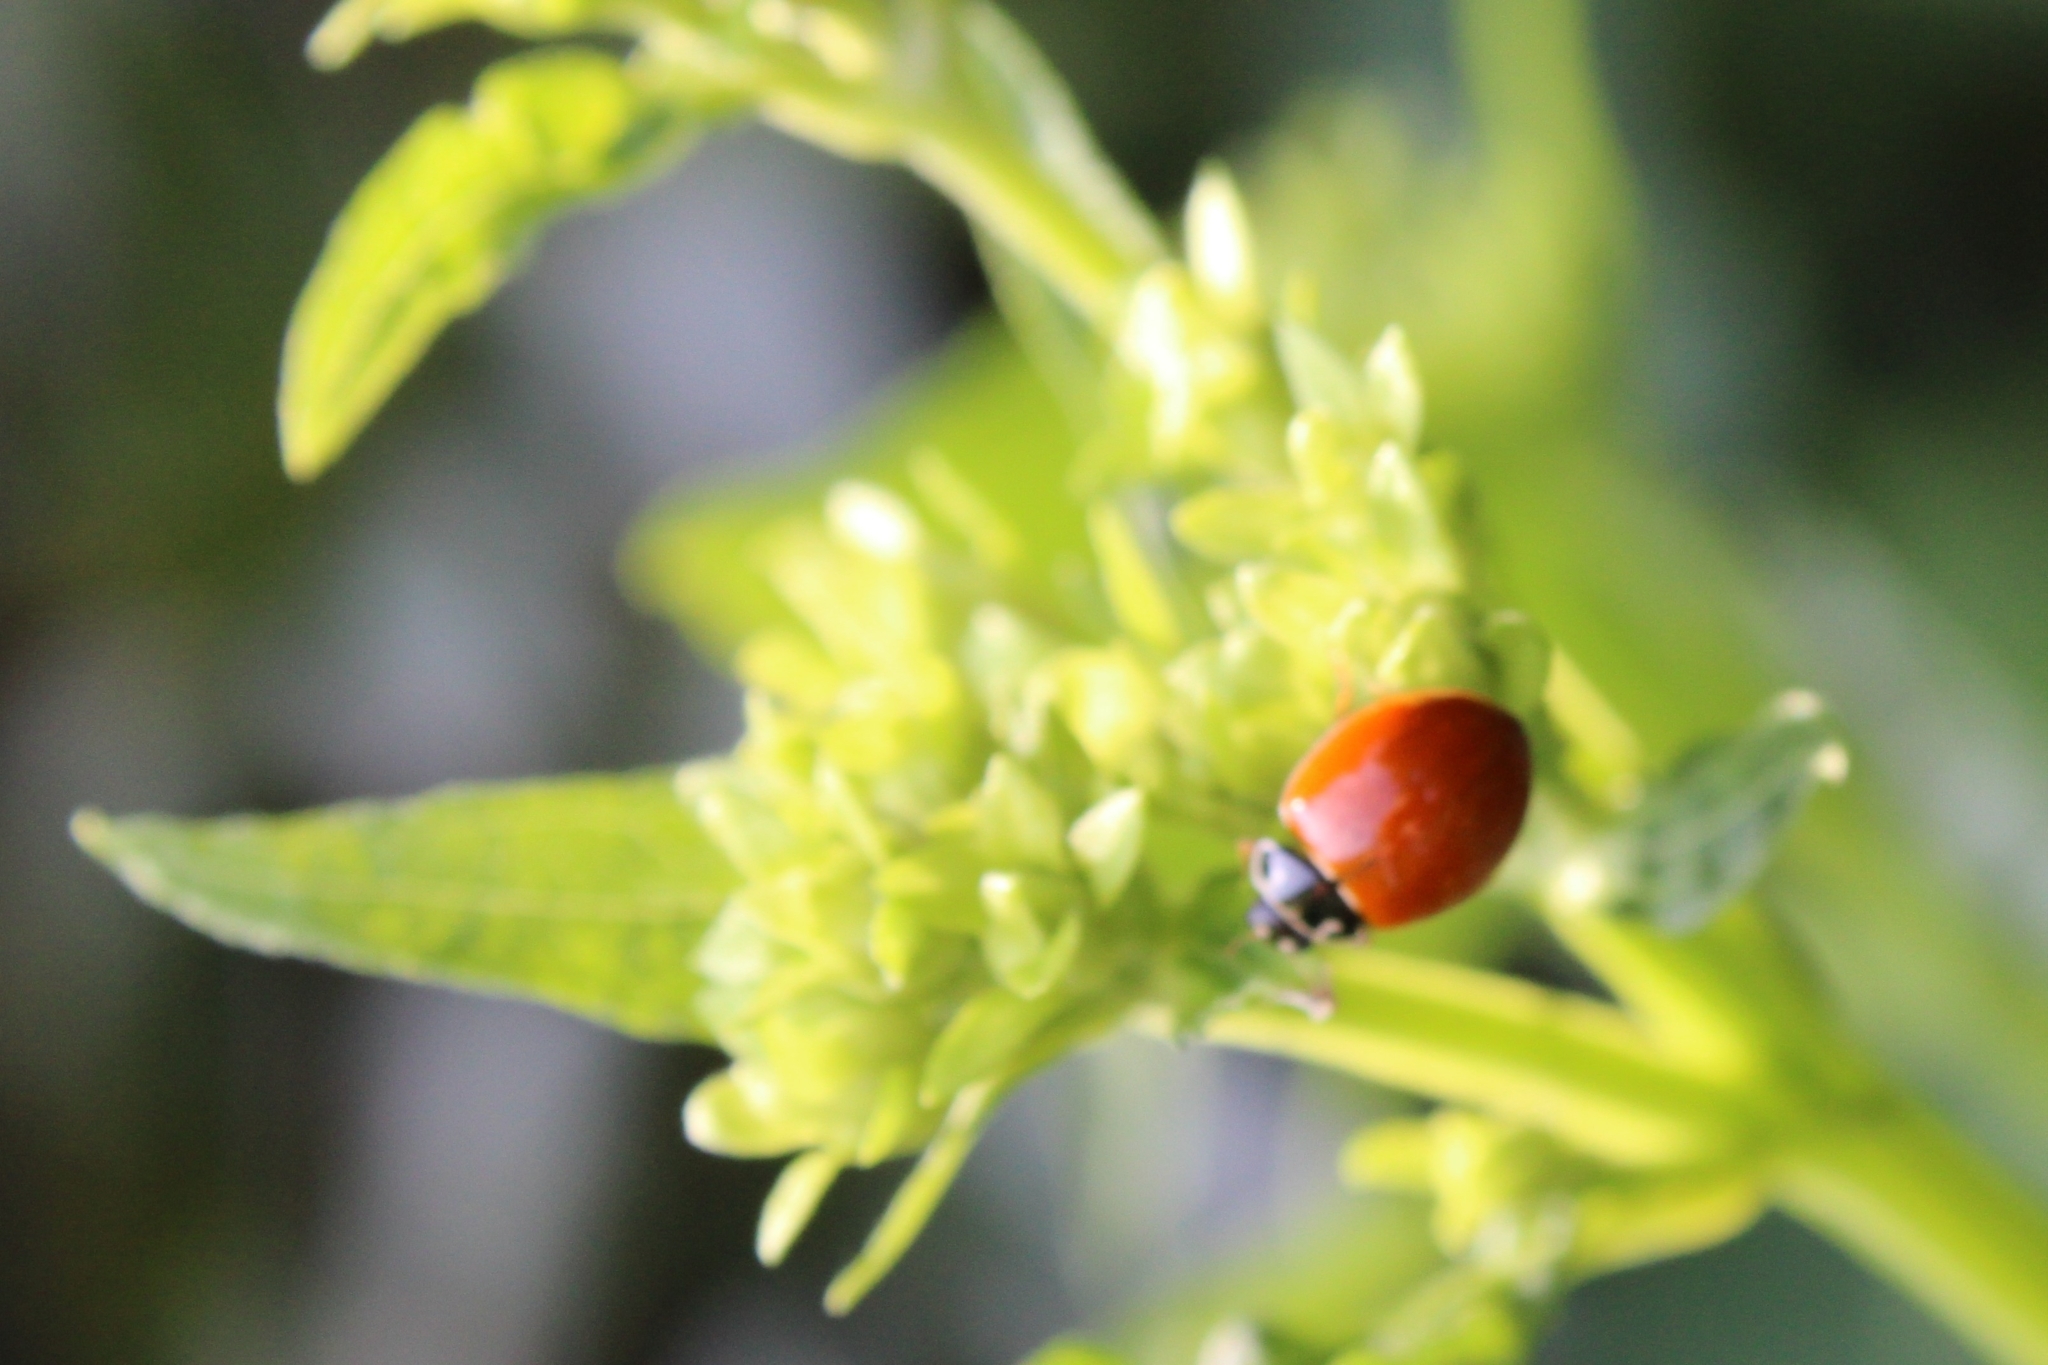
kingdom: Animalia
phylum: Arthropoda
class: Insecta
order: Coleoptera
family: Coccinellidae
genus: Cycloneda
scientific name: Cycloneda munda
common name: Polished lady beetle
